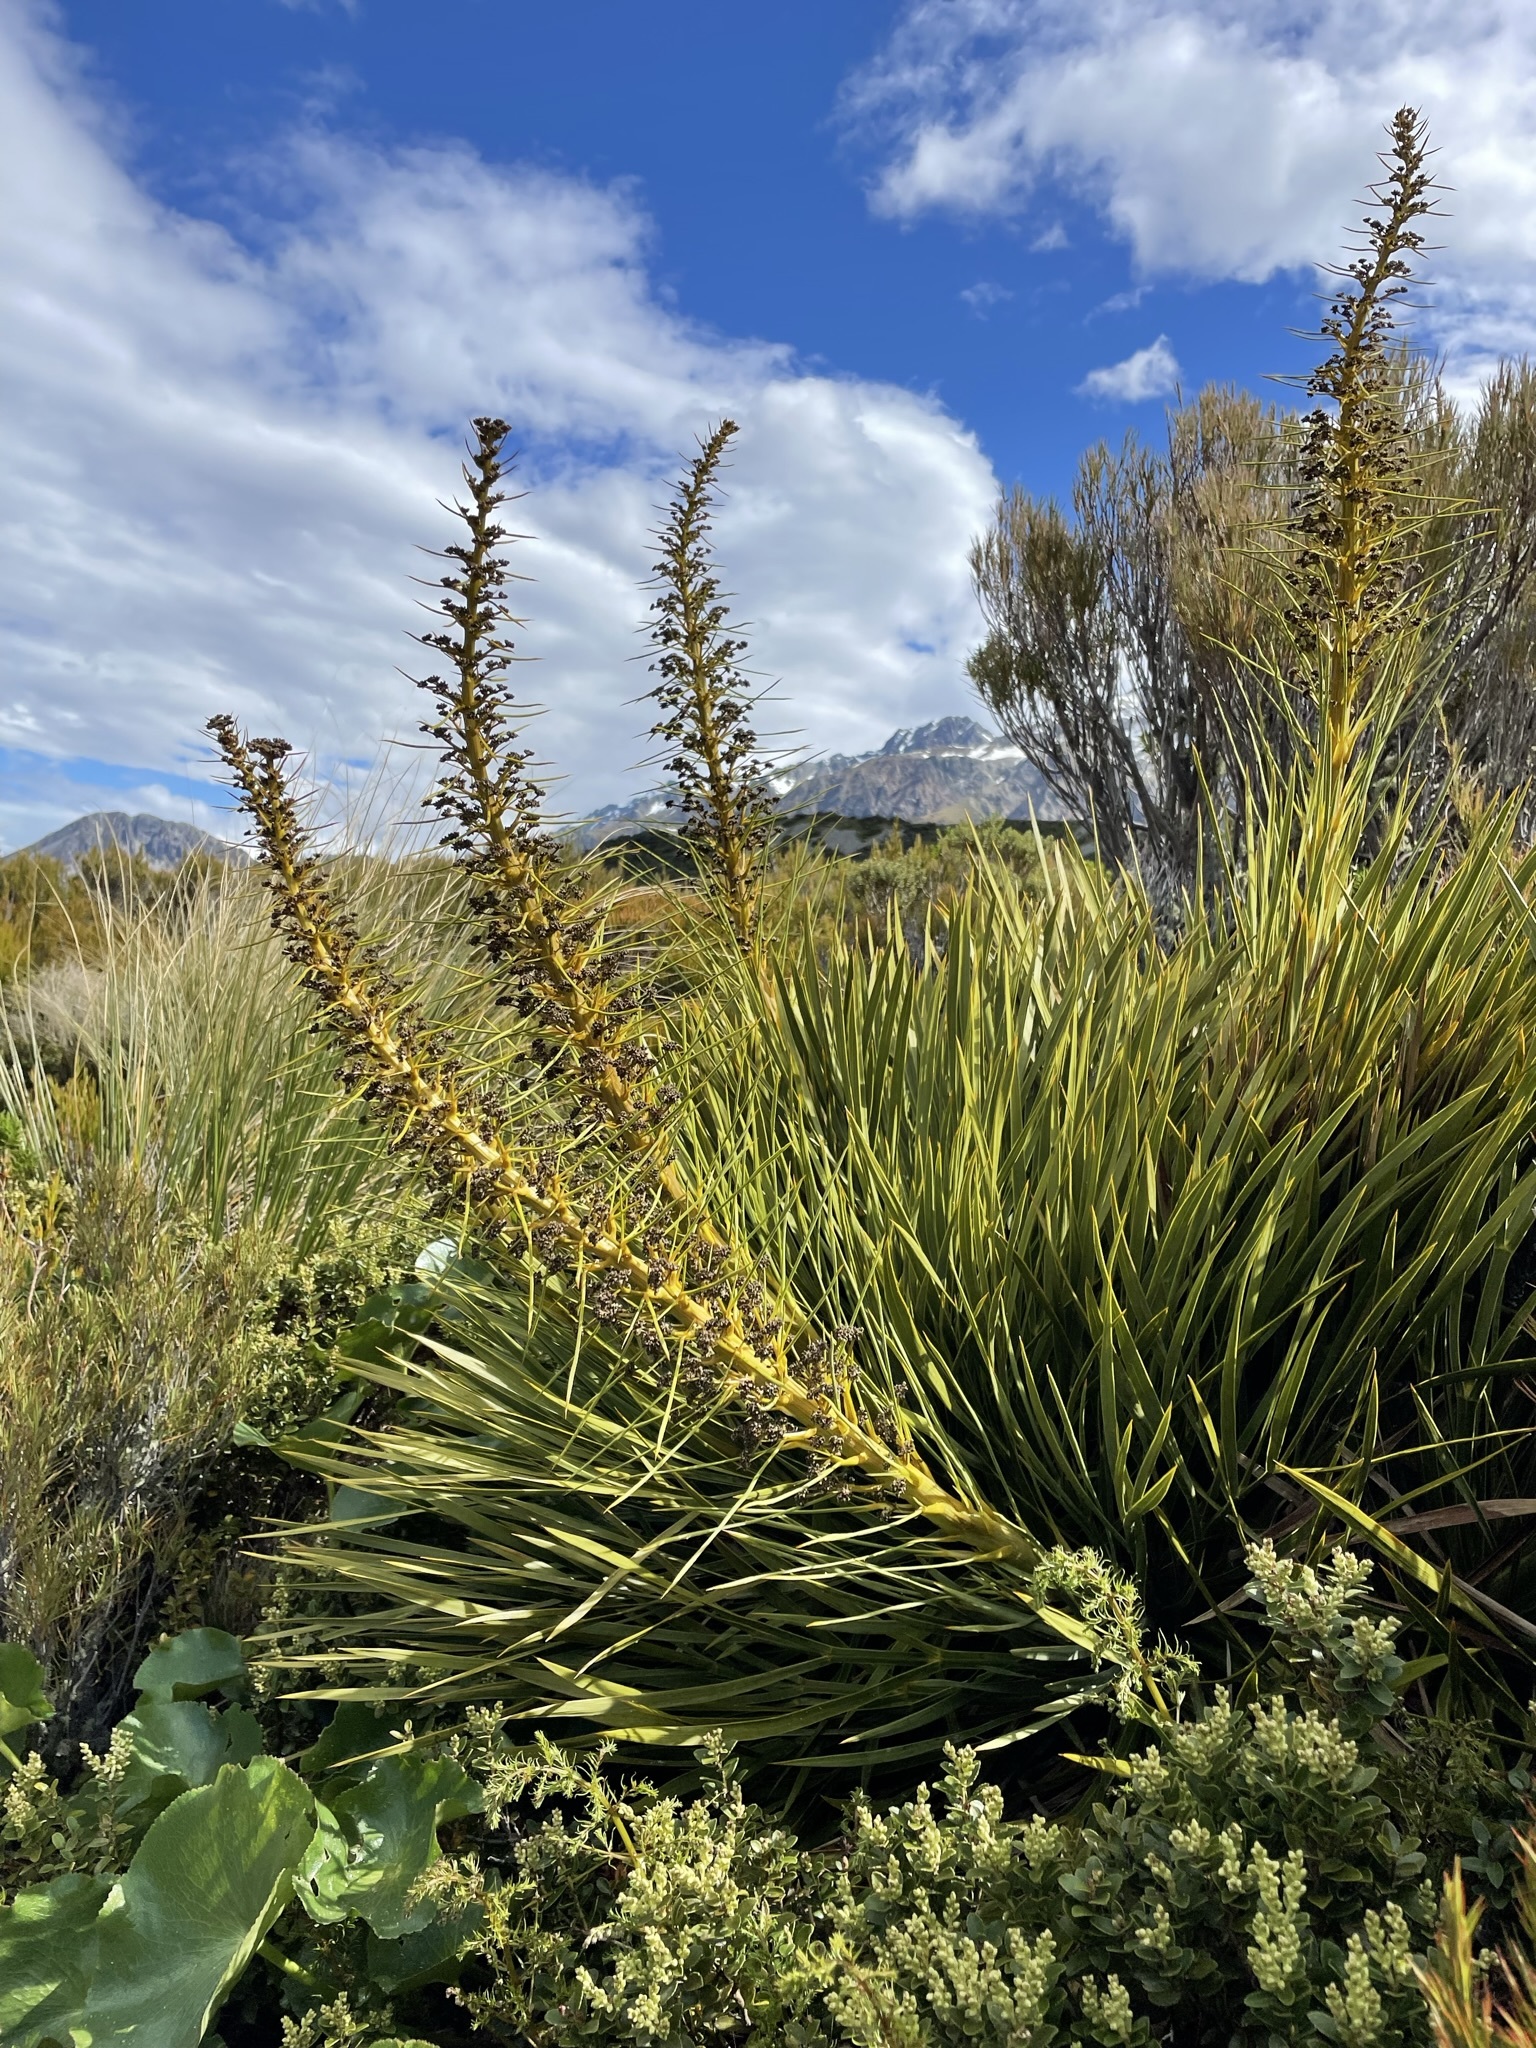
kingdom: Plantae
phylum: Tracheophyta
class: Magnoliopsida
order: Apiales
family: Apiaceae
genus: Aciphylla
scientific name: Aciphylla aurea
